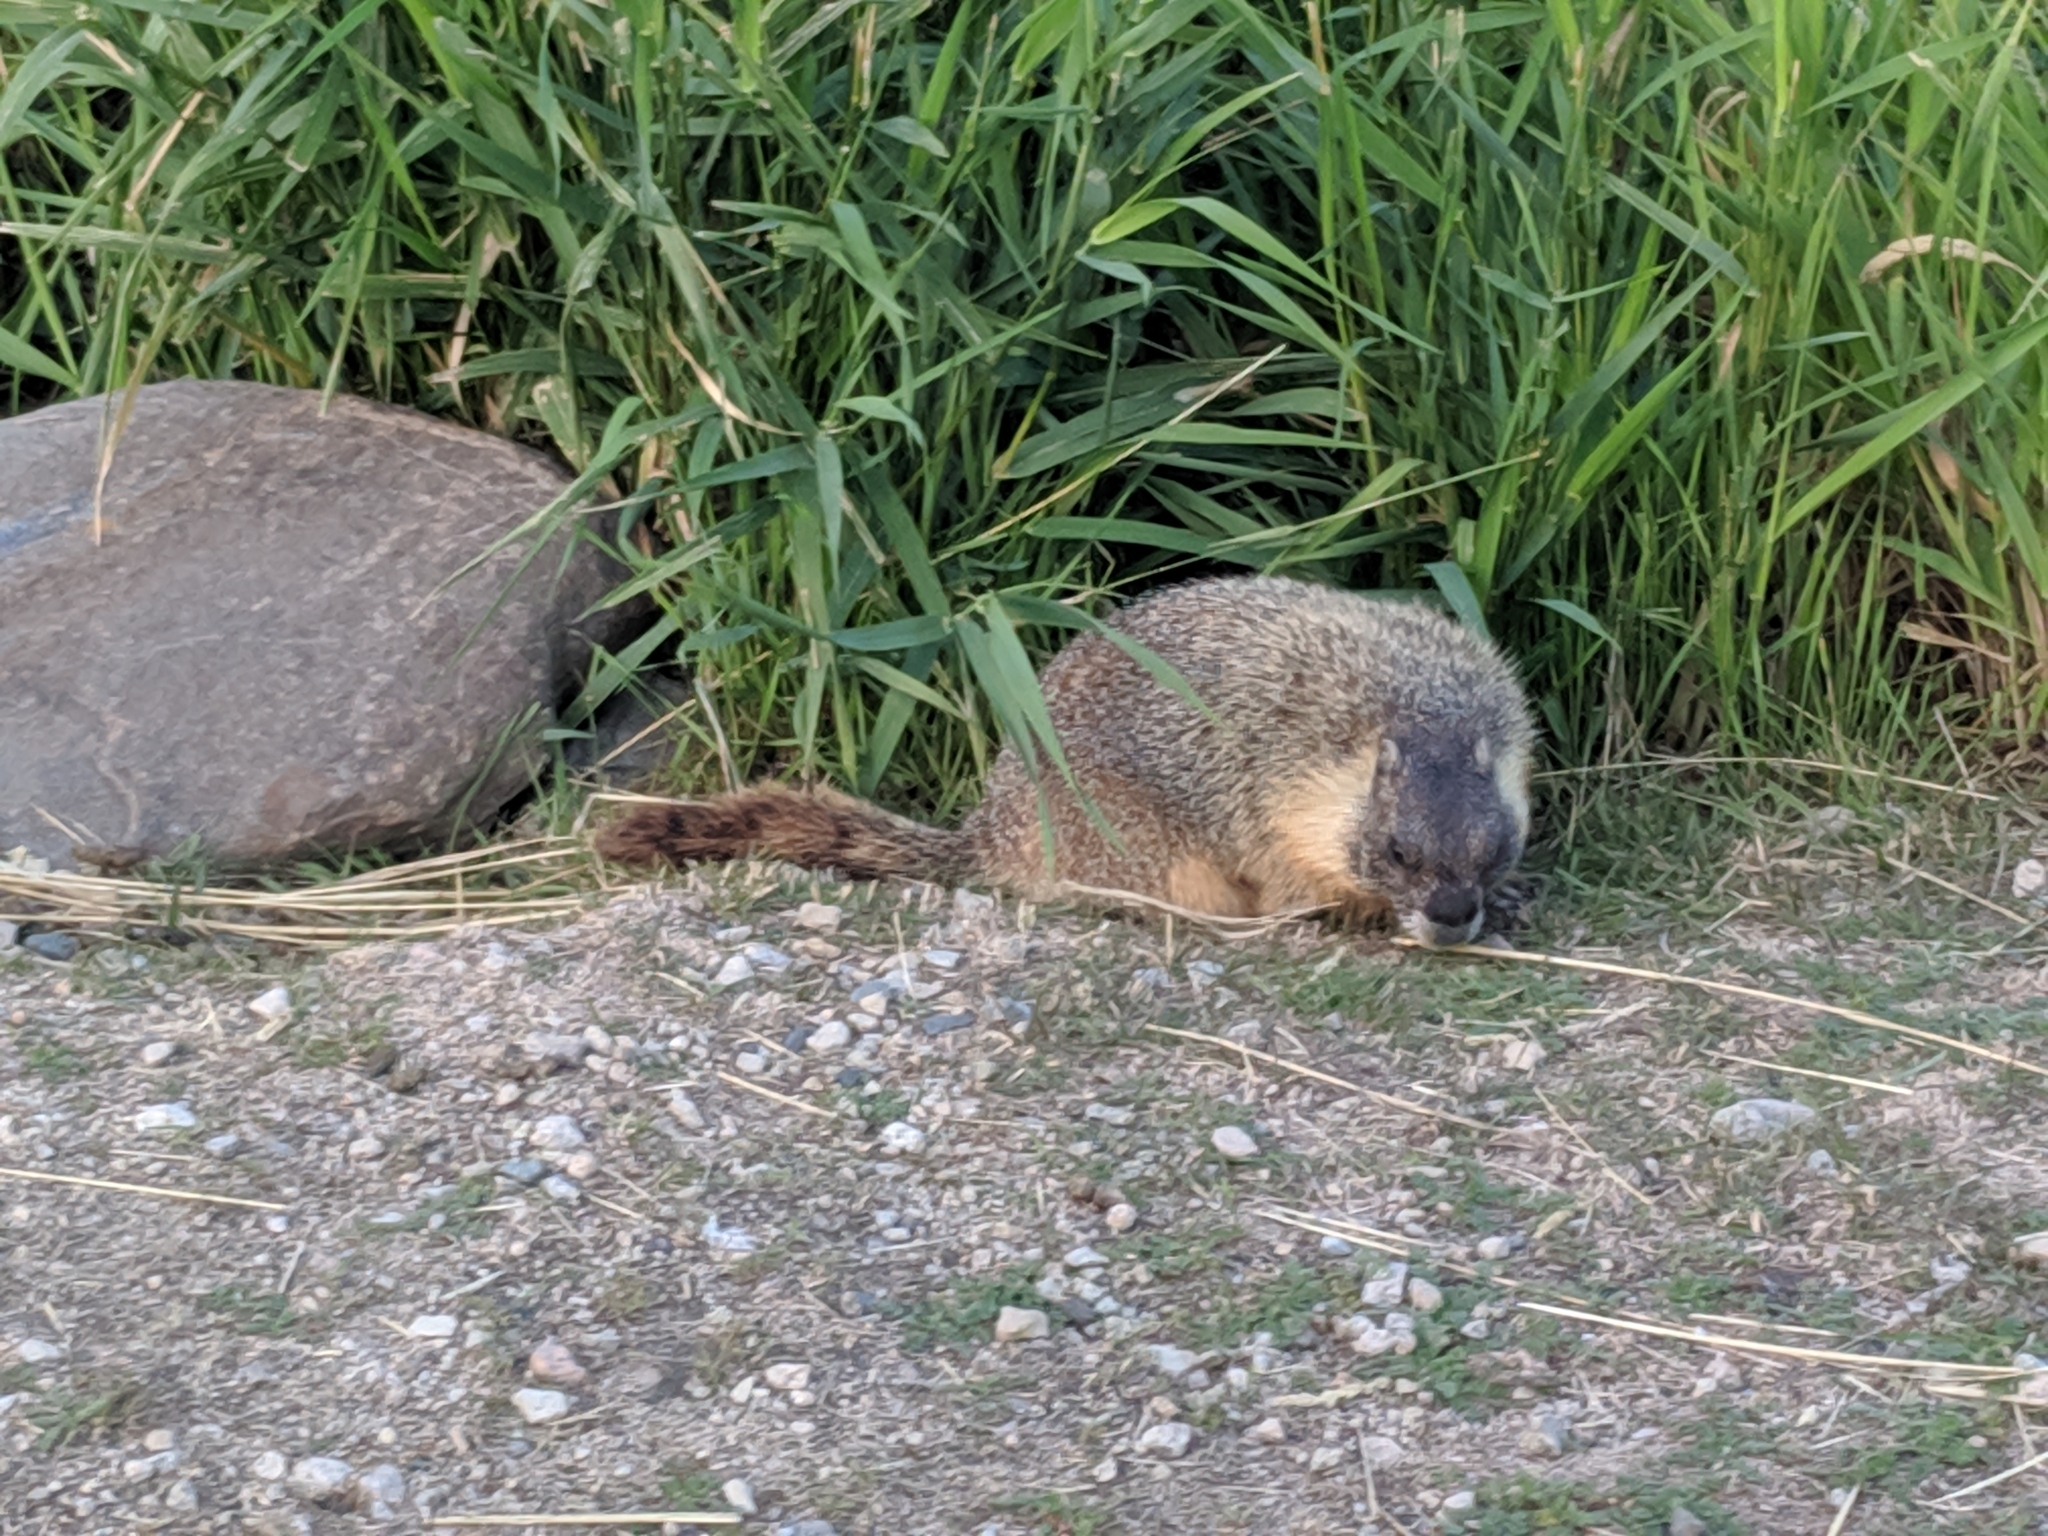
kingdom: Animalia
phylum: Chordata
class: Mammalia
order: Rodentia
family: Sciuridae
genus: Marmota
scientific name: Marmota flaviventris
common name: Yellow-bellied marmot
